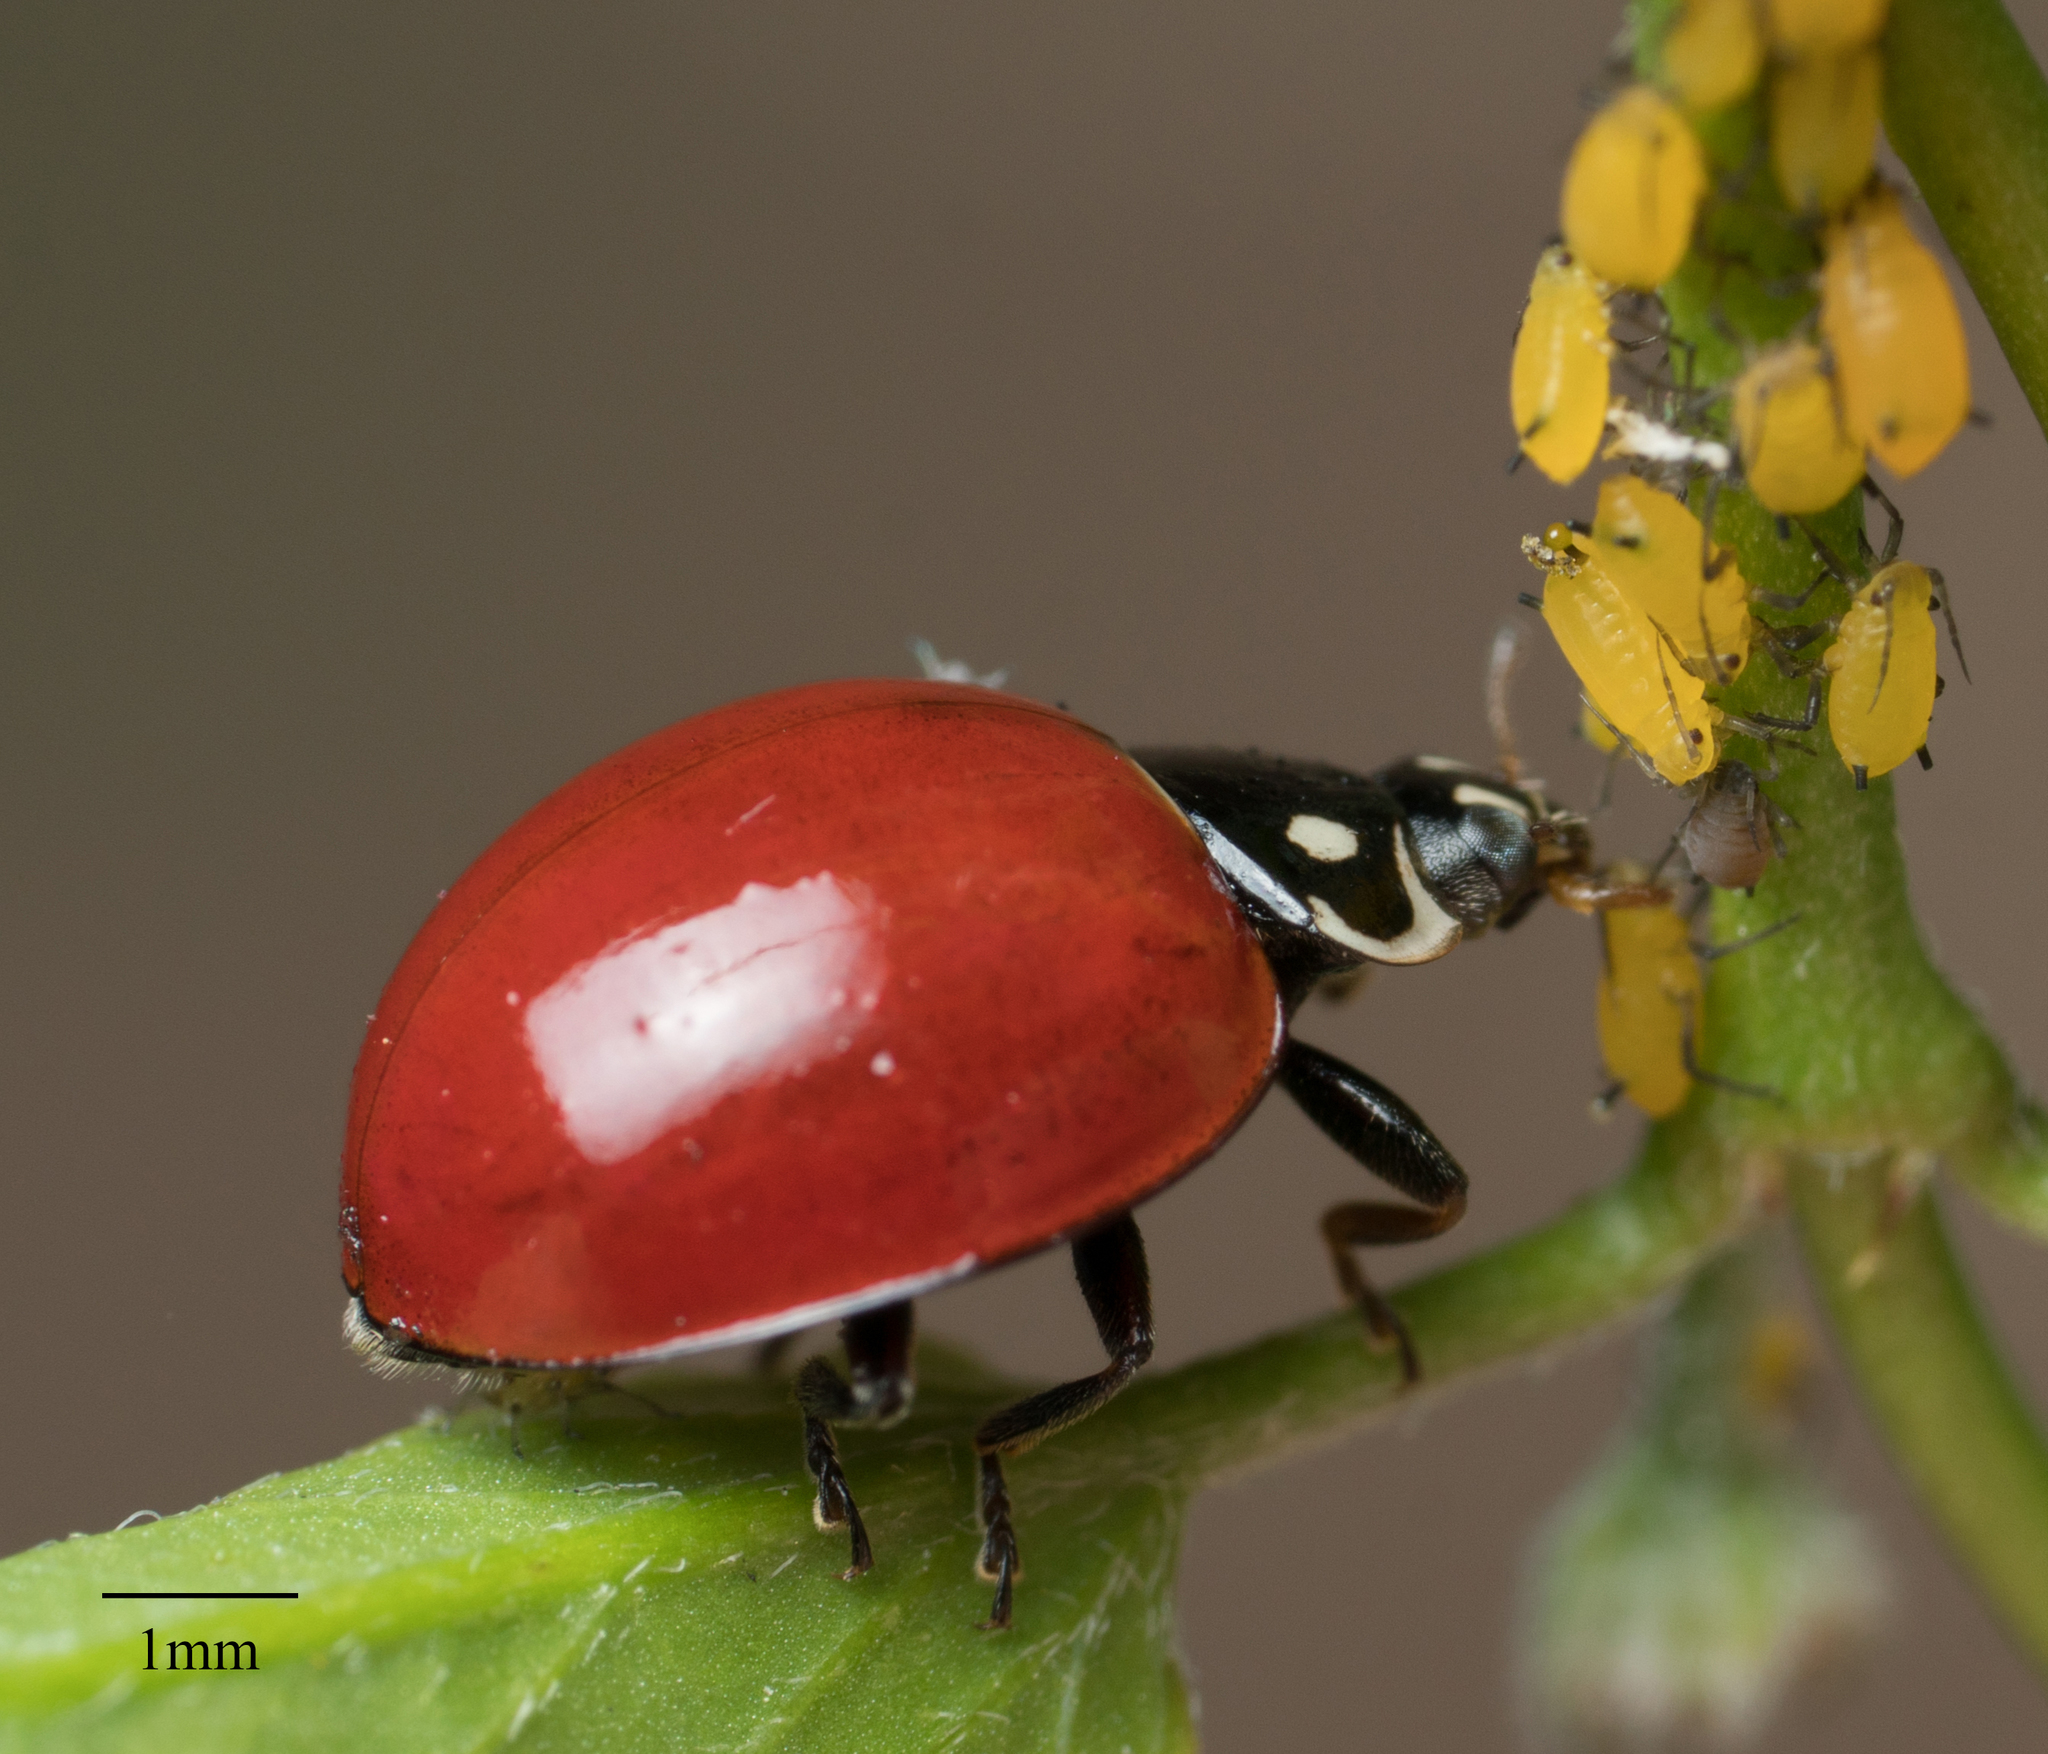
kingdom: Animalia
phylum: Arthropoda
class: Insecta
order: Coleoptera
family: Coccinellidae
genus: Cycloneda
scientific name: Cycloneda sanguinea
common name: Ladybird beetle
